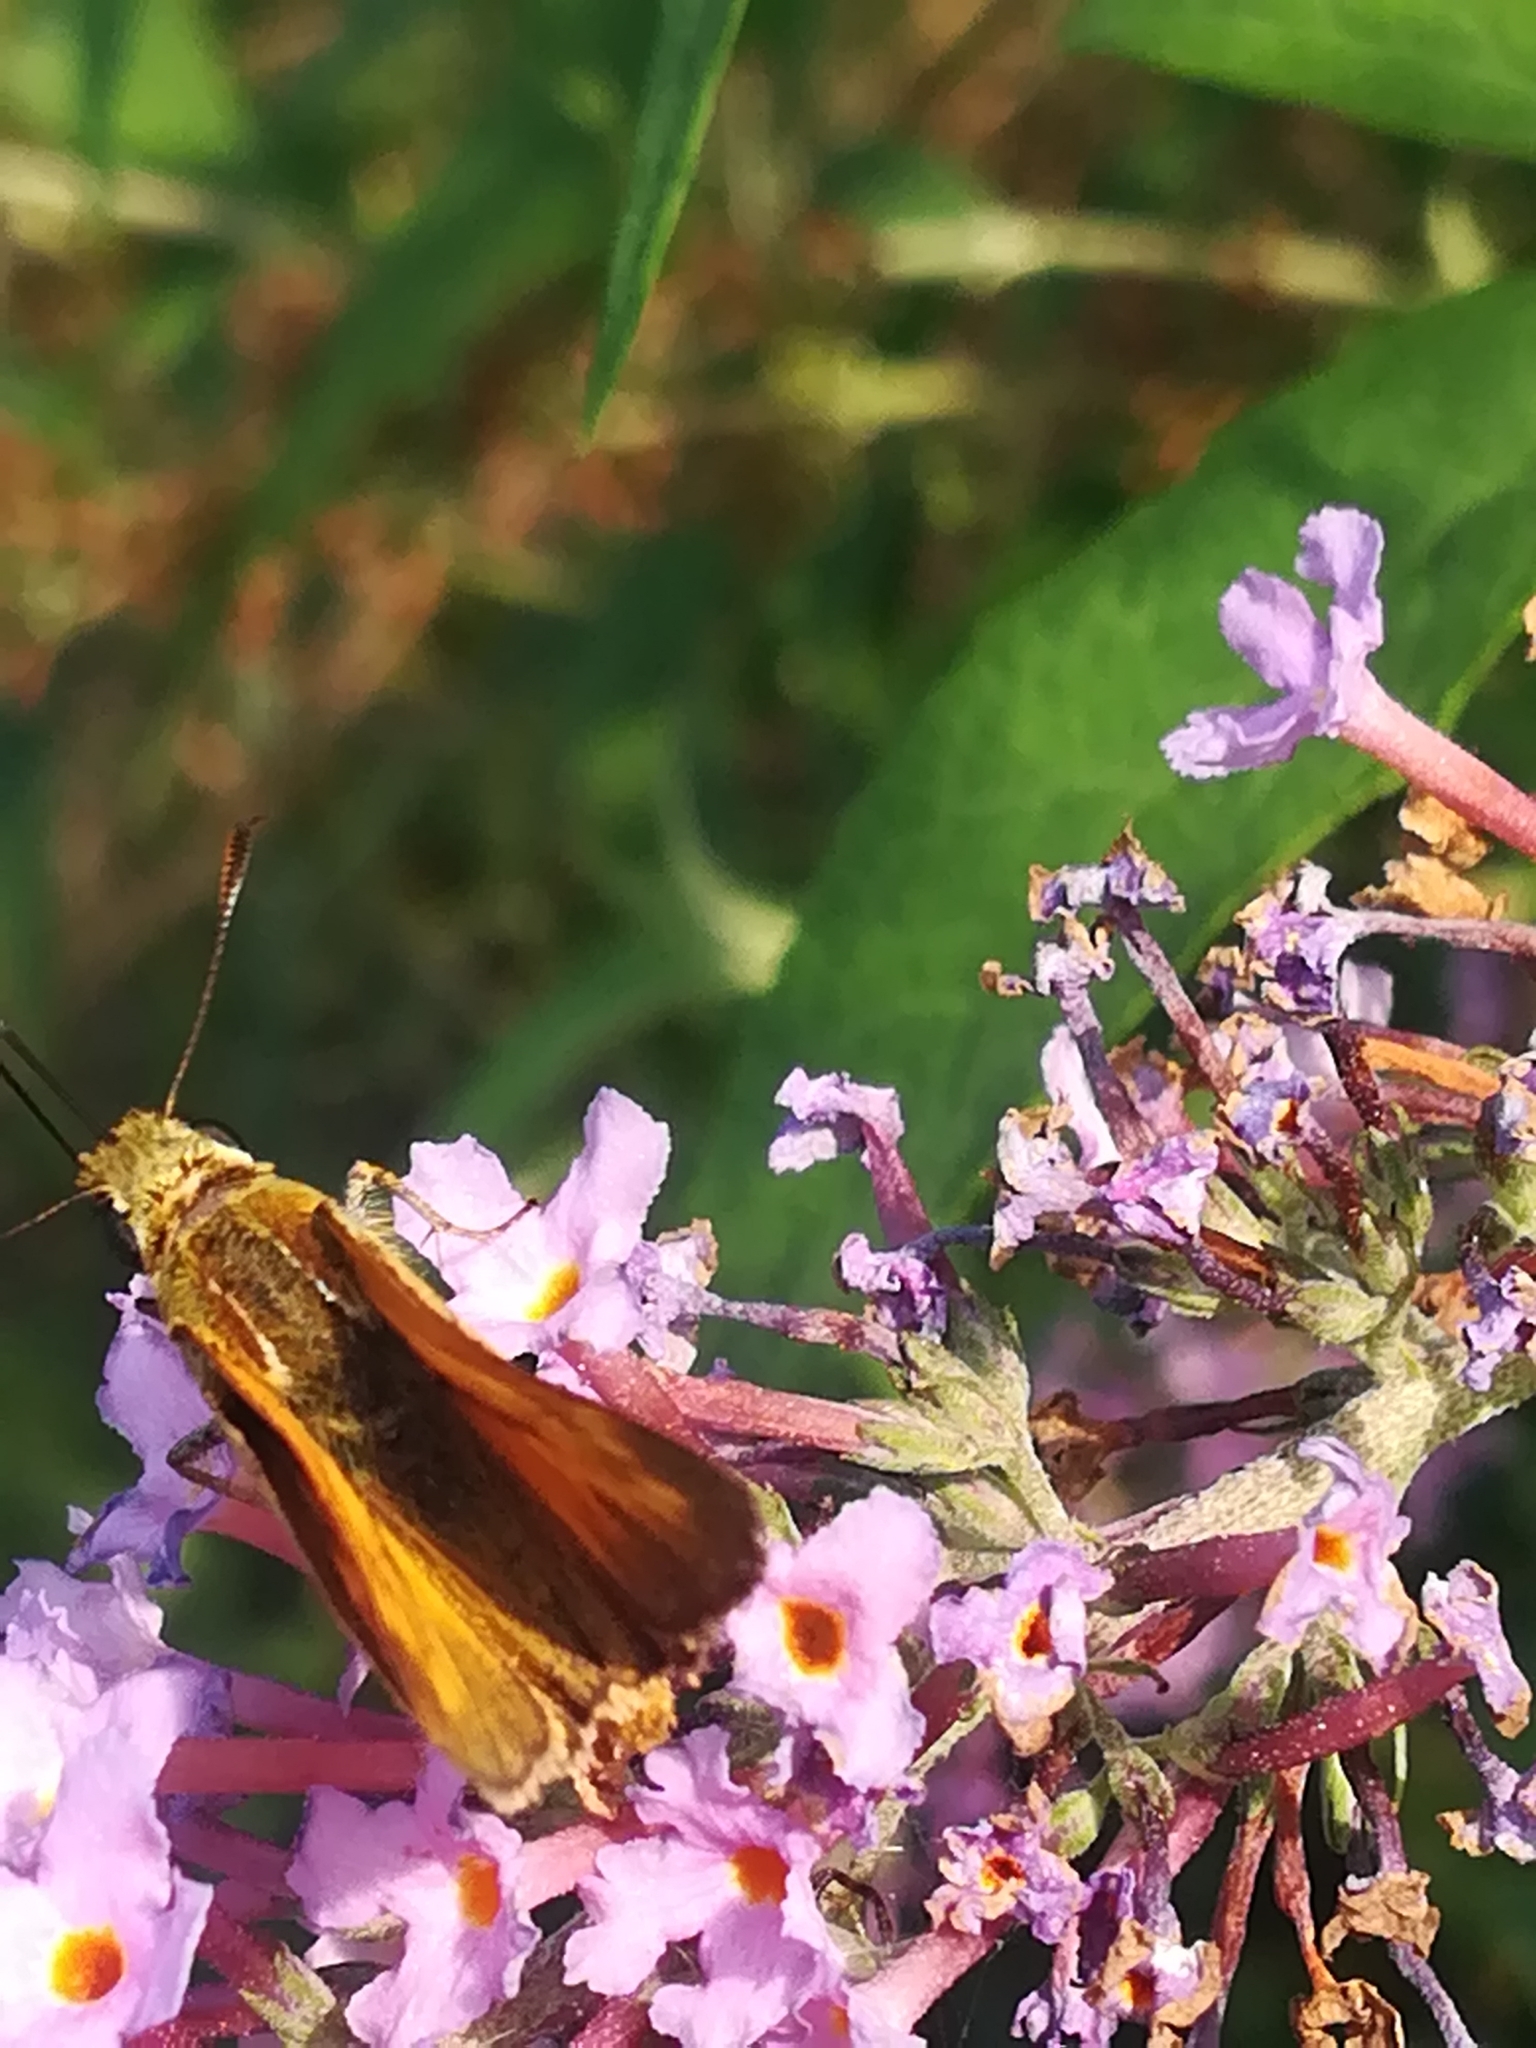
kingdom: Animalia
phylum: Arthropoda
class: Insecta
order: Lepidoptera
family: Hesperiidae
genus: Ochlodes
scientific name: Ochlodes venata
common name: Large skipper
